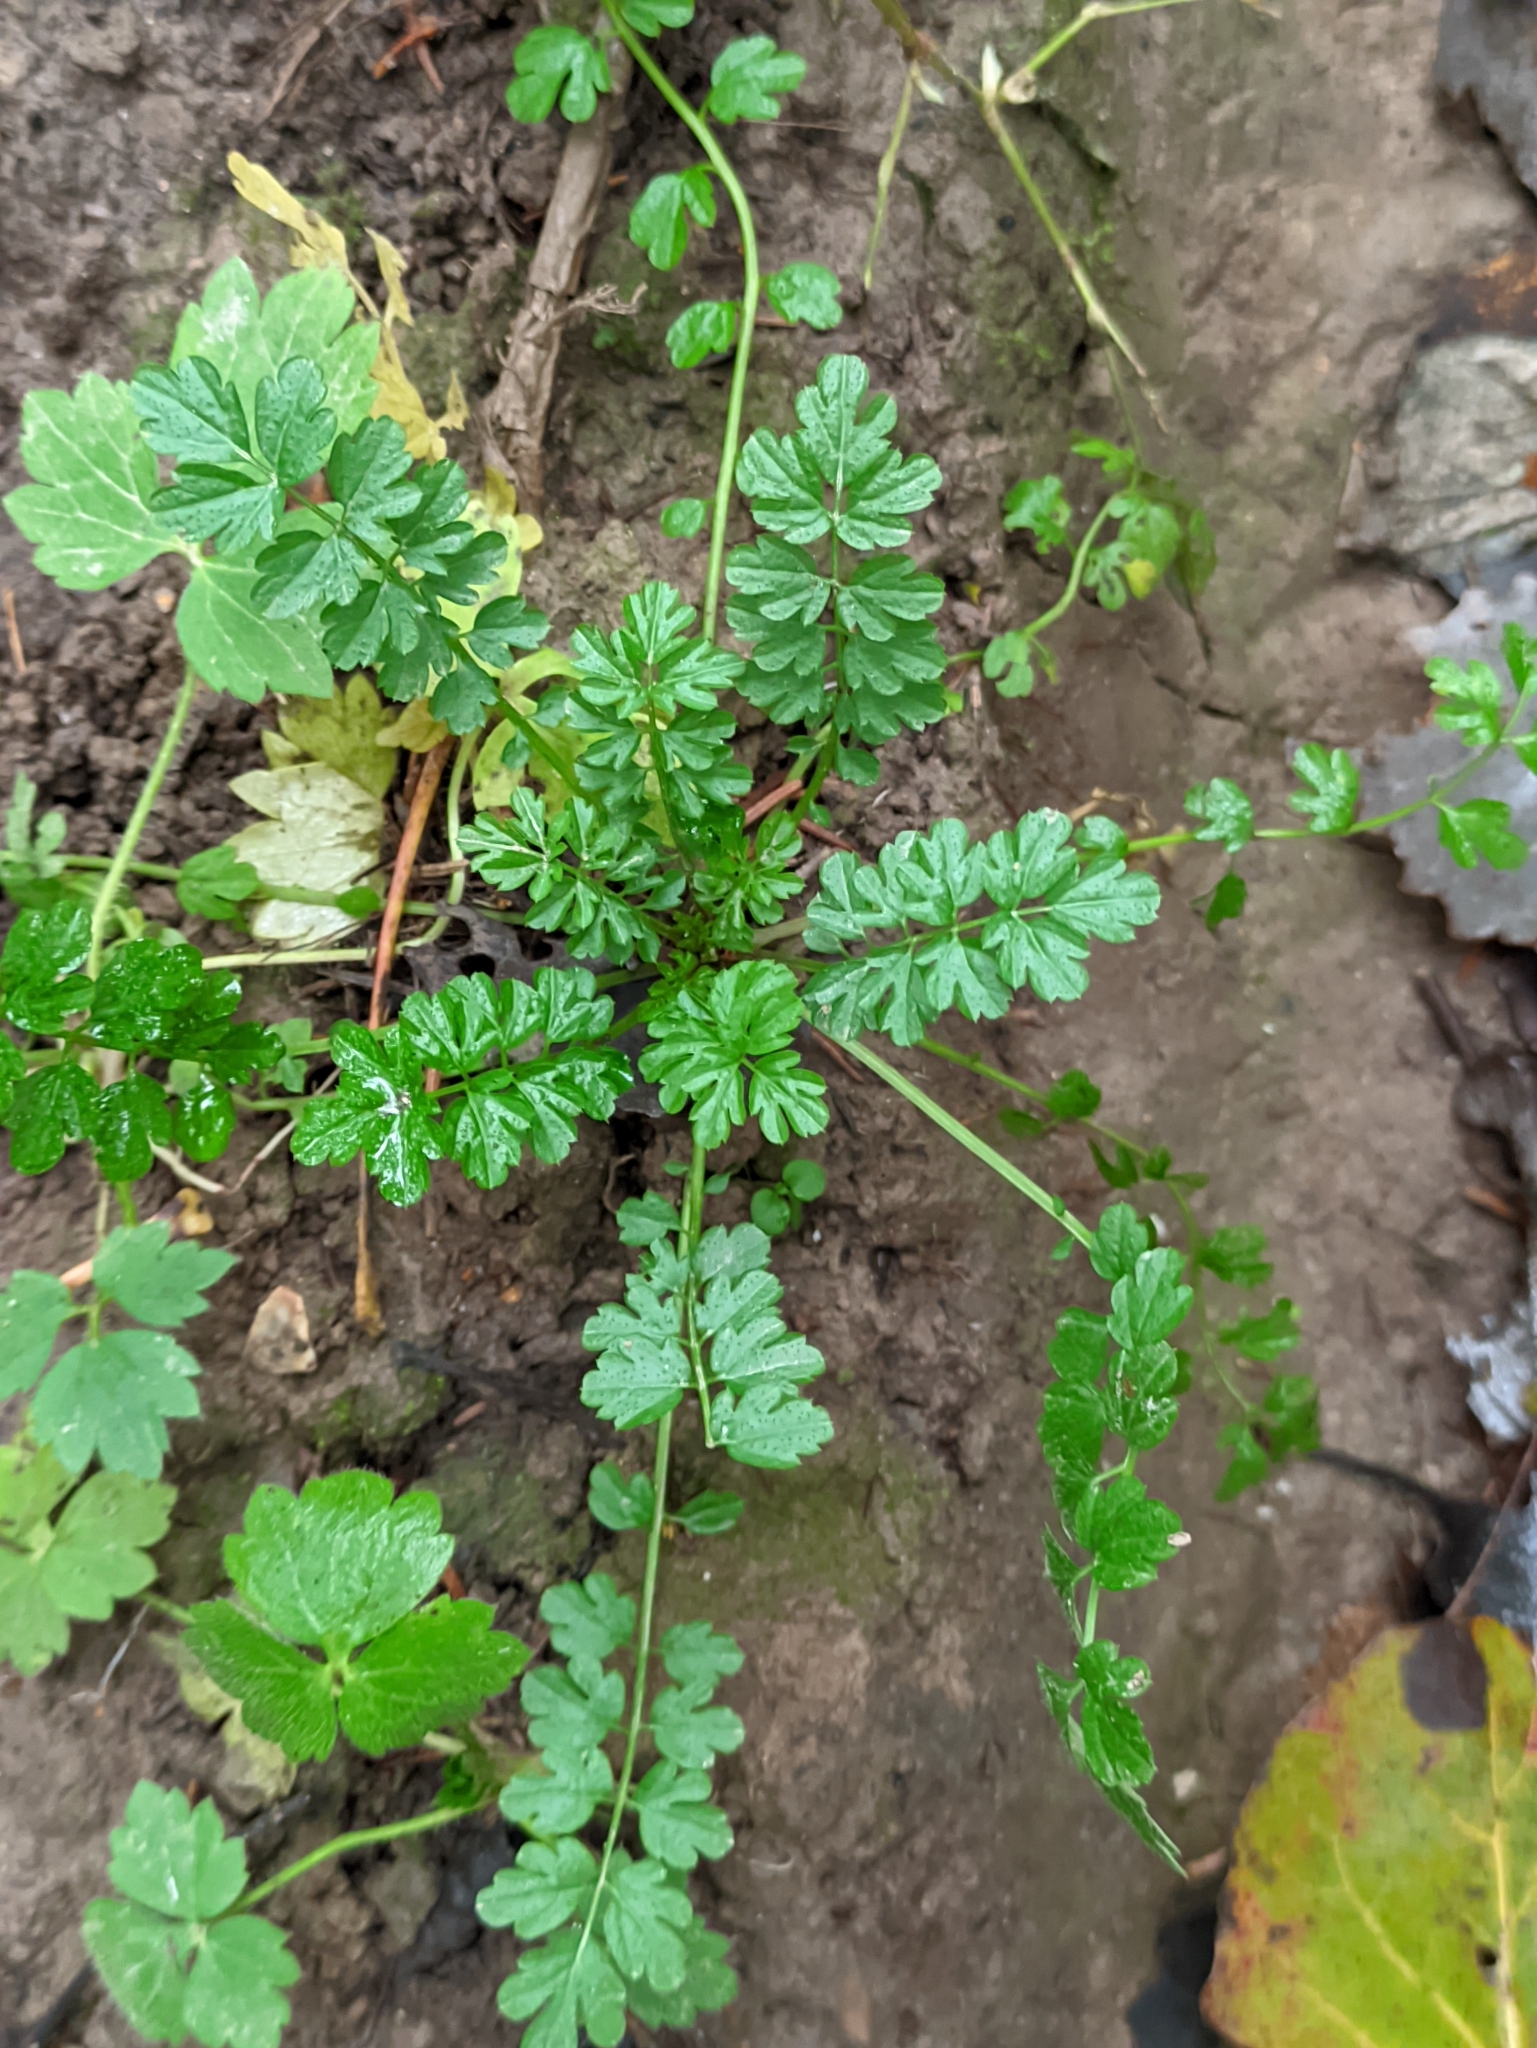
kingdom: Plantae
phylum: Tracheophyta
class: Magnoliopsida
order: Brassicales
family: Brassicaceae
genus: Cardamine
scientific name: Cardamine impatiens
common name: Narrow-leaved bitter-cress
